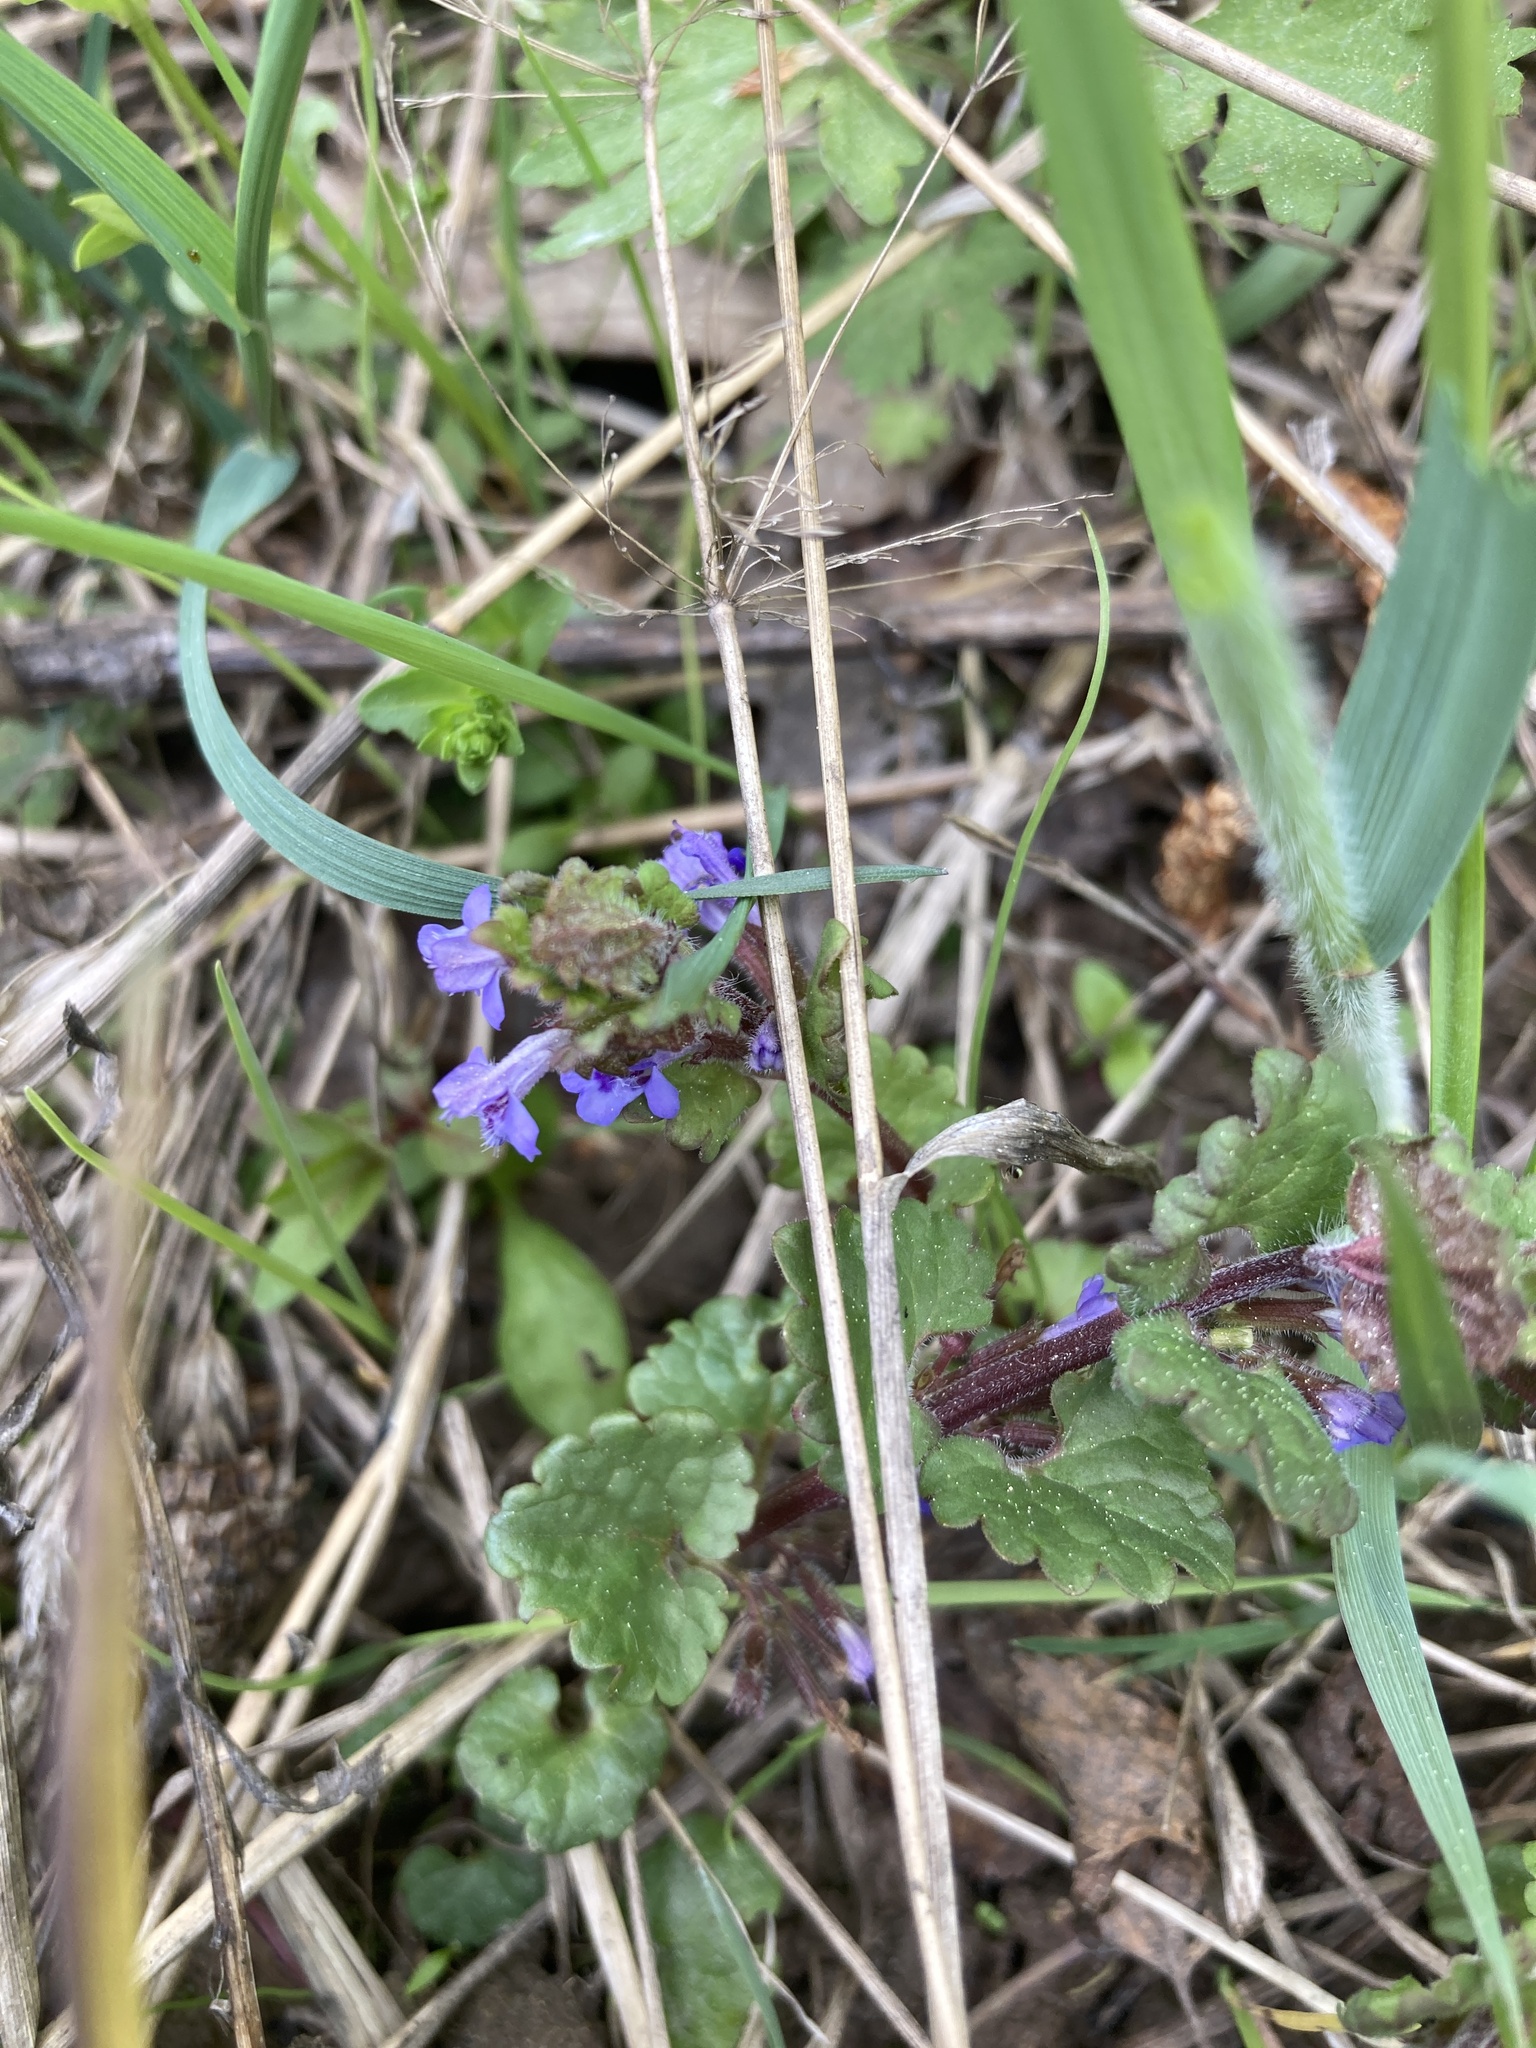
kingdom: Plantae
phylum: Tracheophyta
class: Magnoliopsida
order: Lamiales
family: Lamiaceae
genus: Glechoma
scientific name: Glechoma hederacea
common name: Ground ivy
